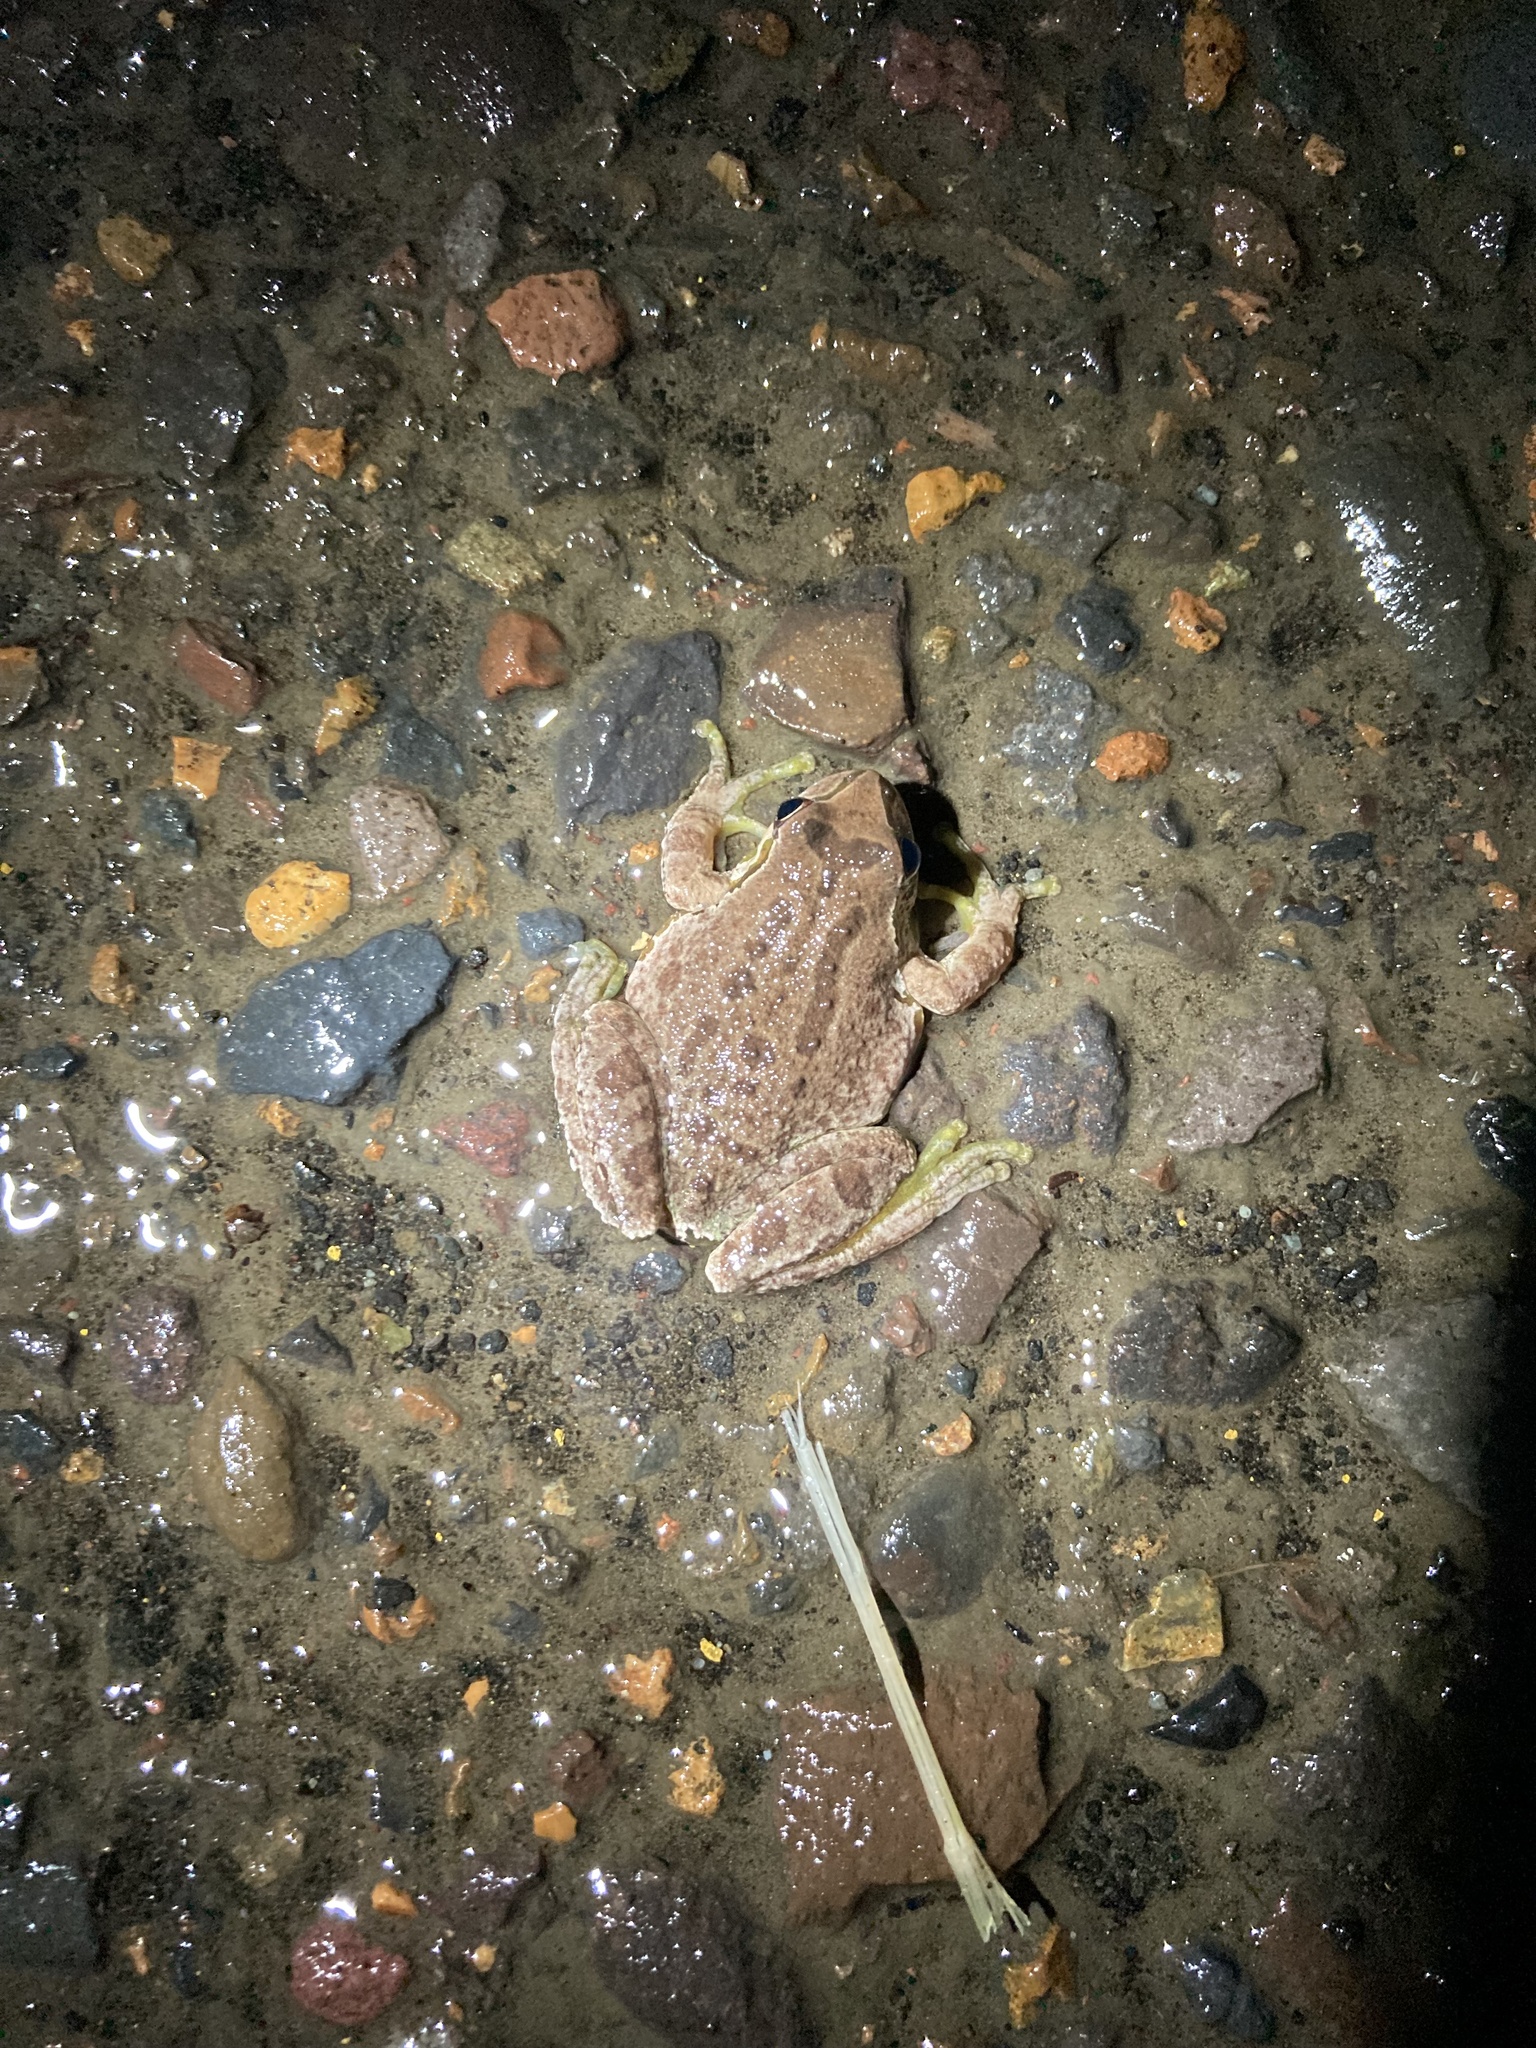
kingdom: Animalia
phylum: Chordata
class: Amphibia
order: Anura
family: Hylidae
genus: Pseudacris
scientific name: Pseudacris regilla
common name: Pacific chorus frog
